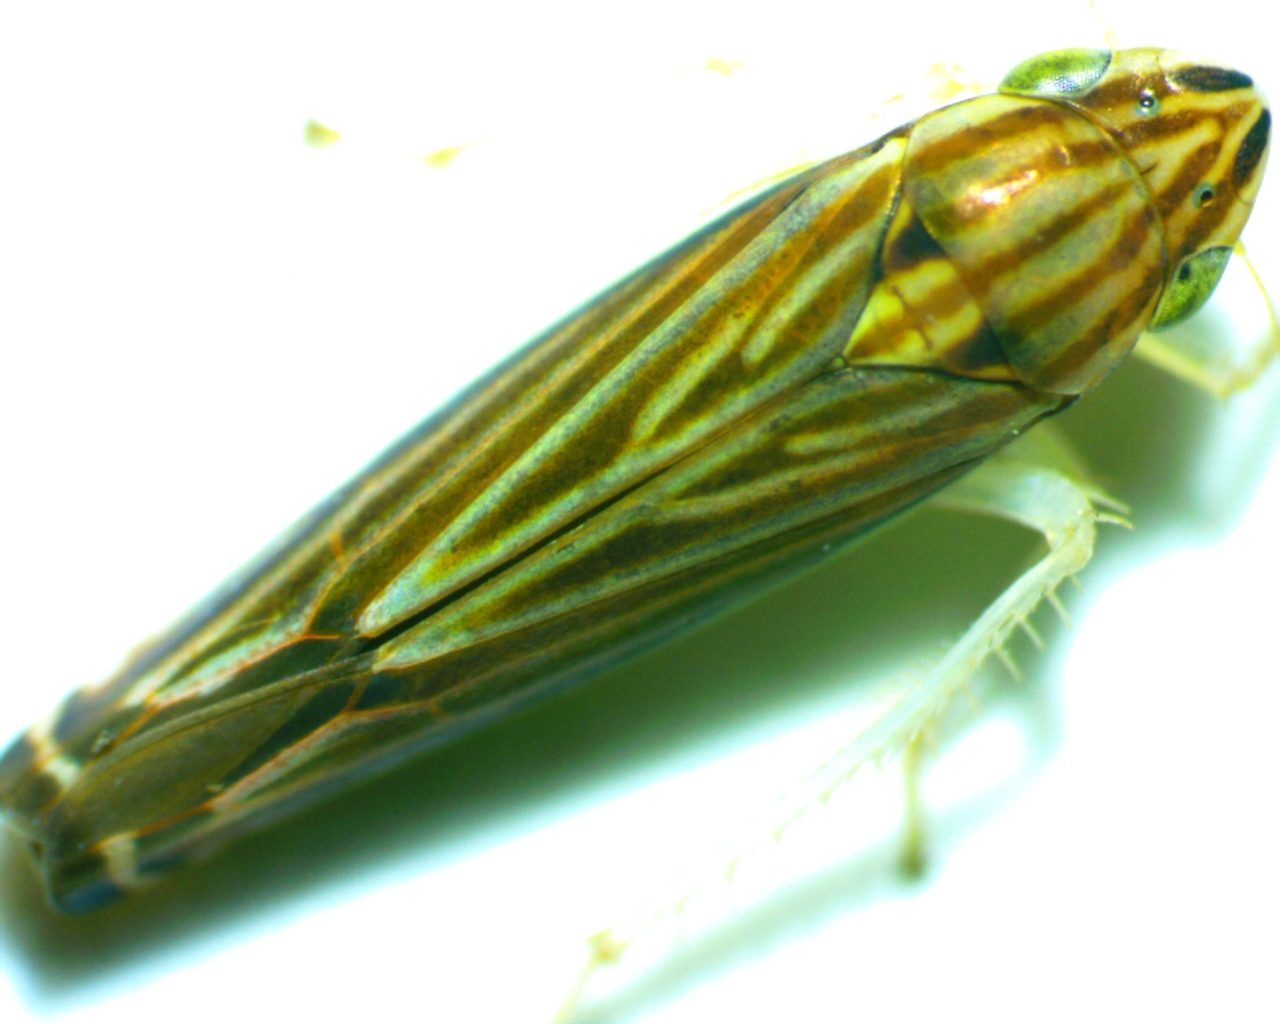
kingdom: Animalia
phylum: Arthropoda
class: Insecta
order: Hemiptera
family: Cicadellidae
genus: Sibovia
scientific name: Sibovia occatoria
